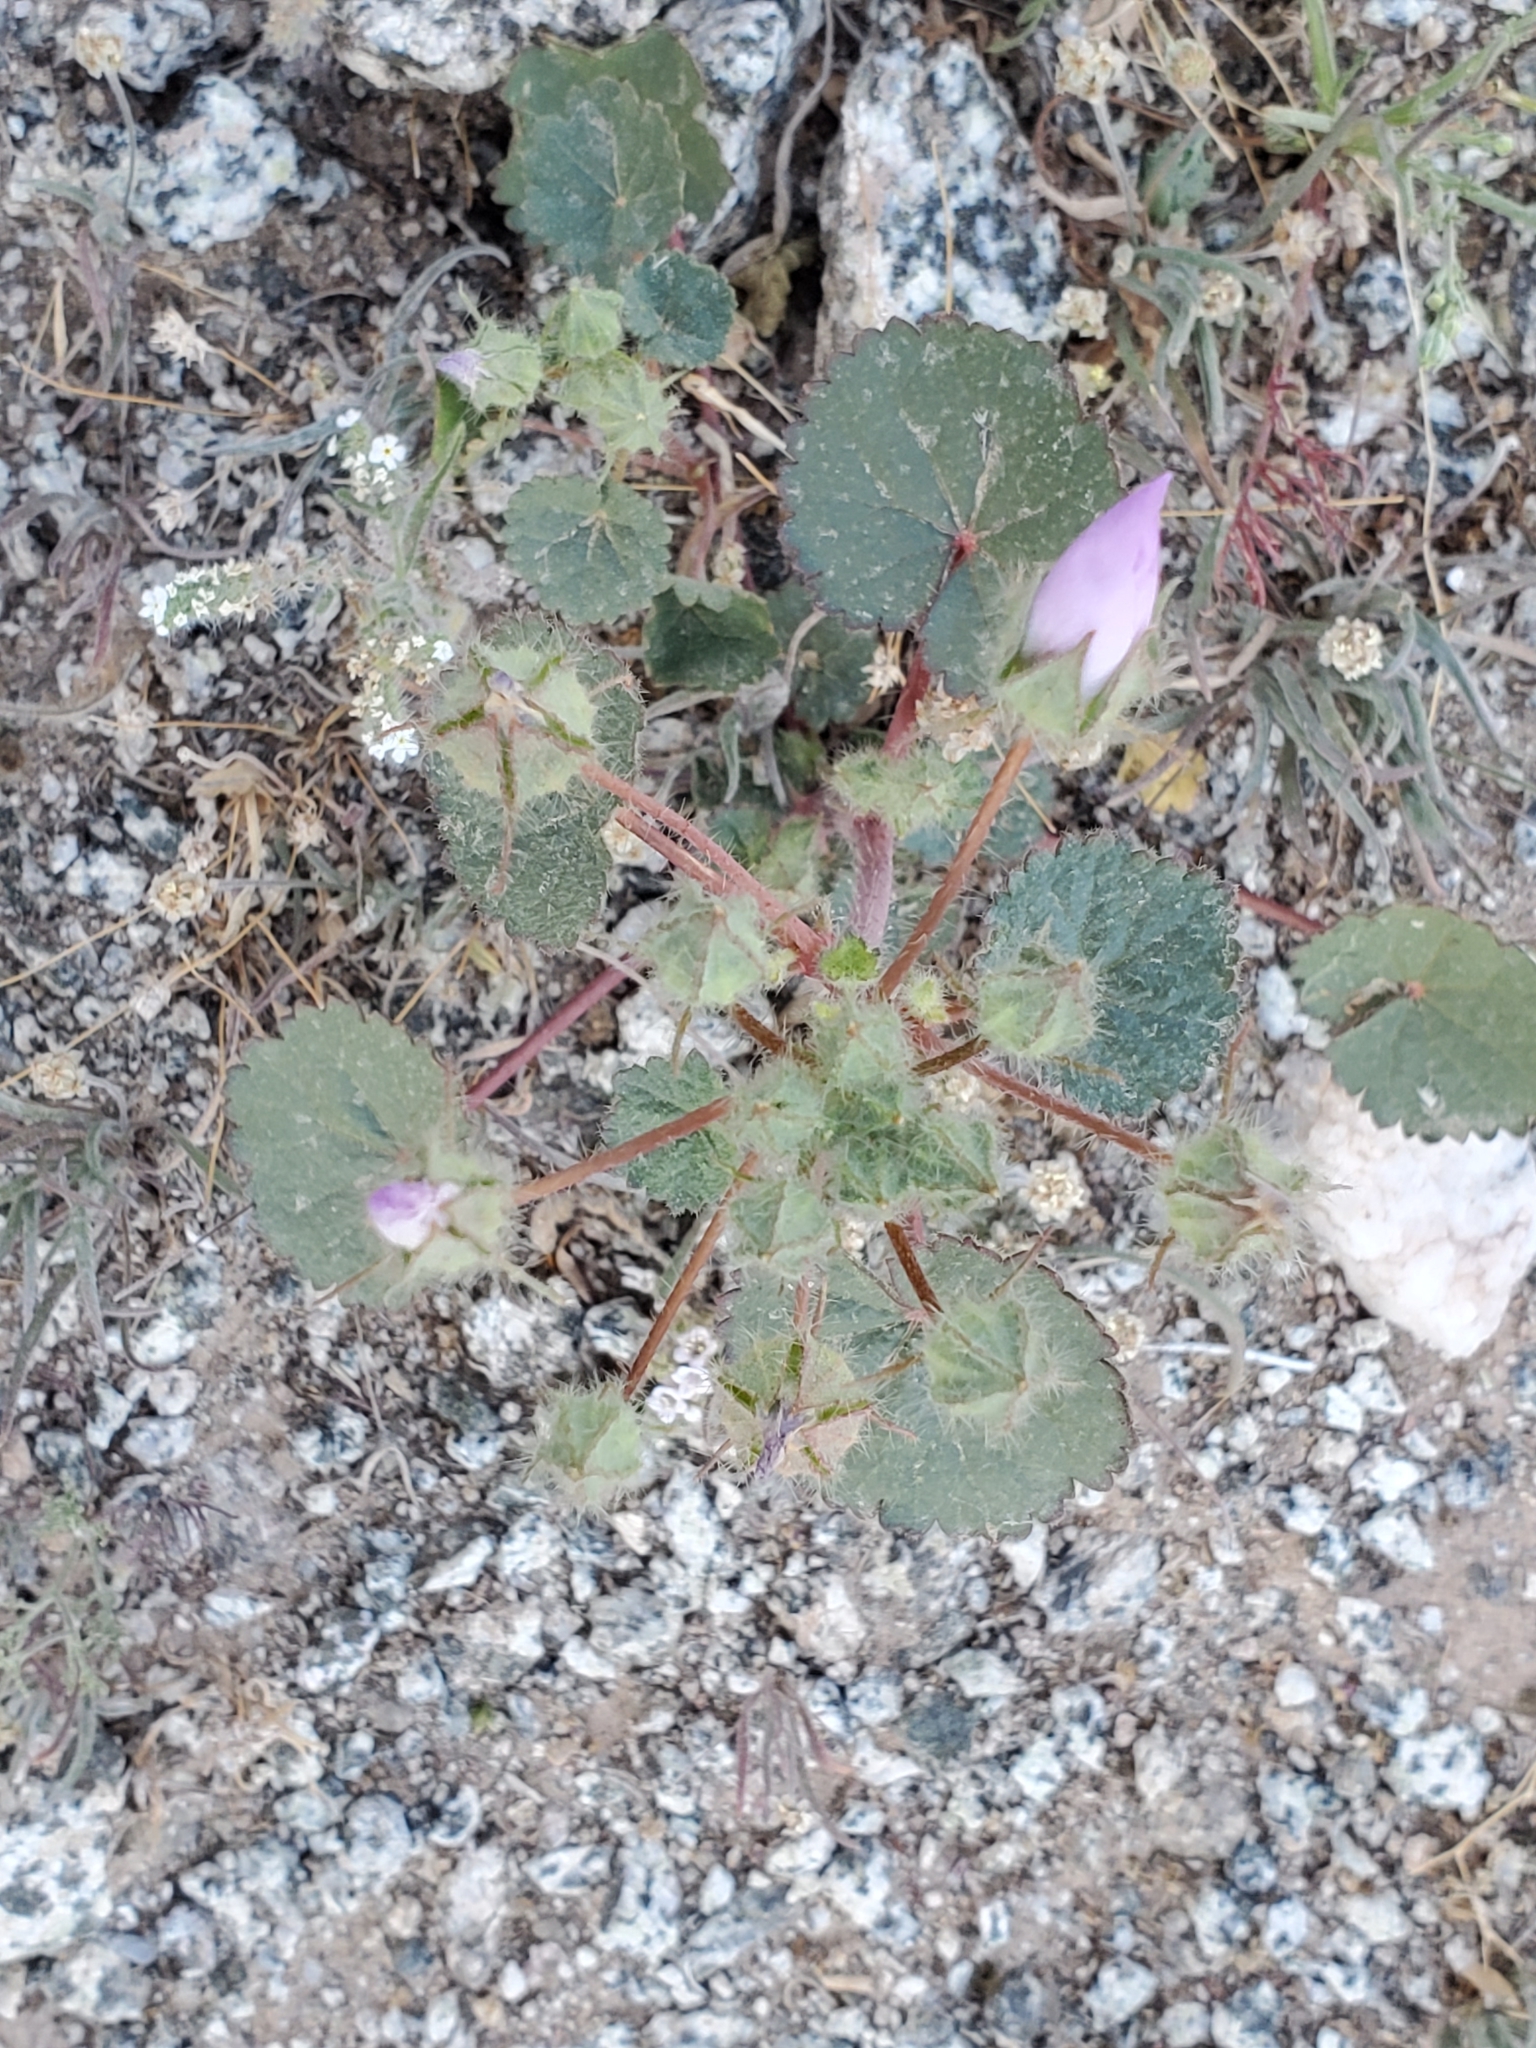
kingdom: Plantae
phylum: Tracheophyta
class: Magnoliopsida
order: Malvales
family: Malvaceae
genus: Eremalche
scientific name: Eremalche rotundifolia
